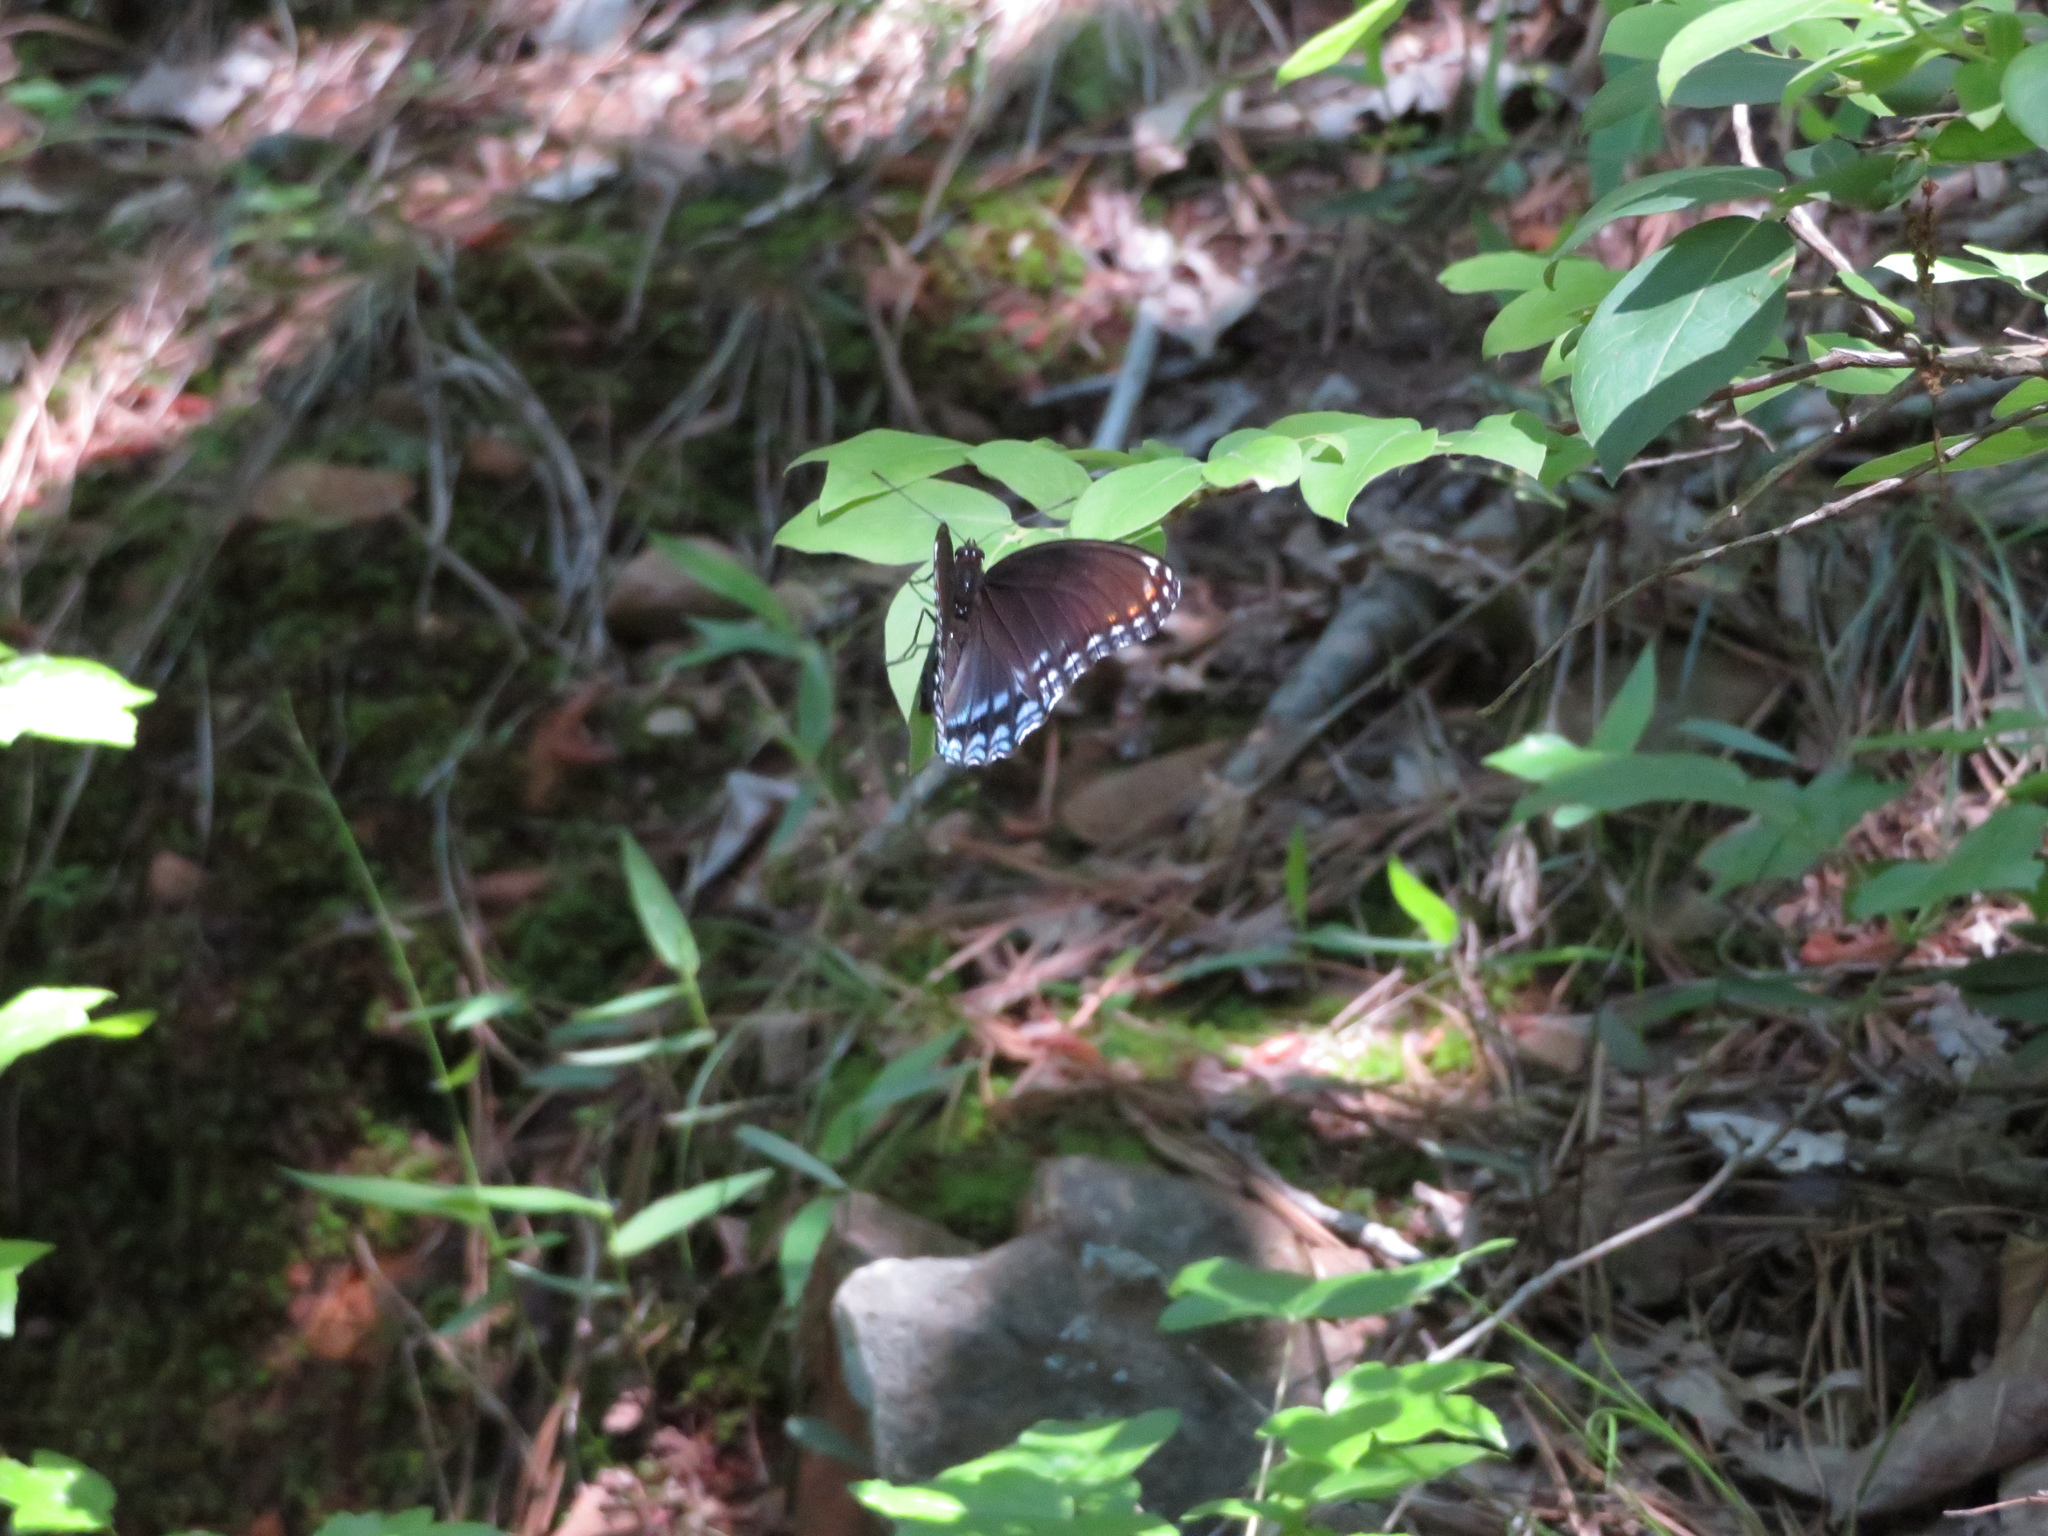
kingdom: Animalia
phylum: Arthropoda
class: Insecta
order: Lepidoptera
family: Nymphalidae
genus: Limenitis
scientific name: Limenitis astyanax
